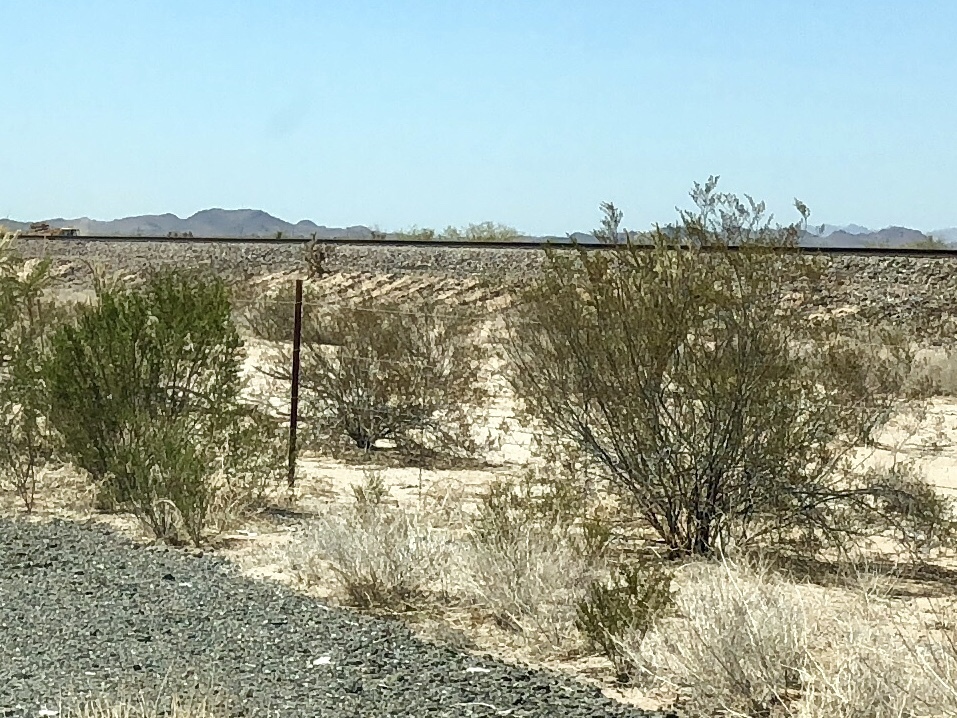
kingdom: Plantae
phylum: Tracheophyta
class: Magnoliopsida
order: Zygophyllales
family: Zygophyllaceae
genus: Larrea
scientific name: Larrea tridentata
